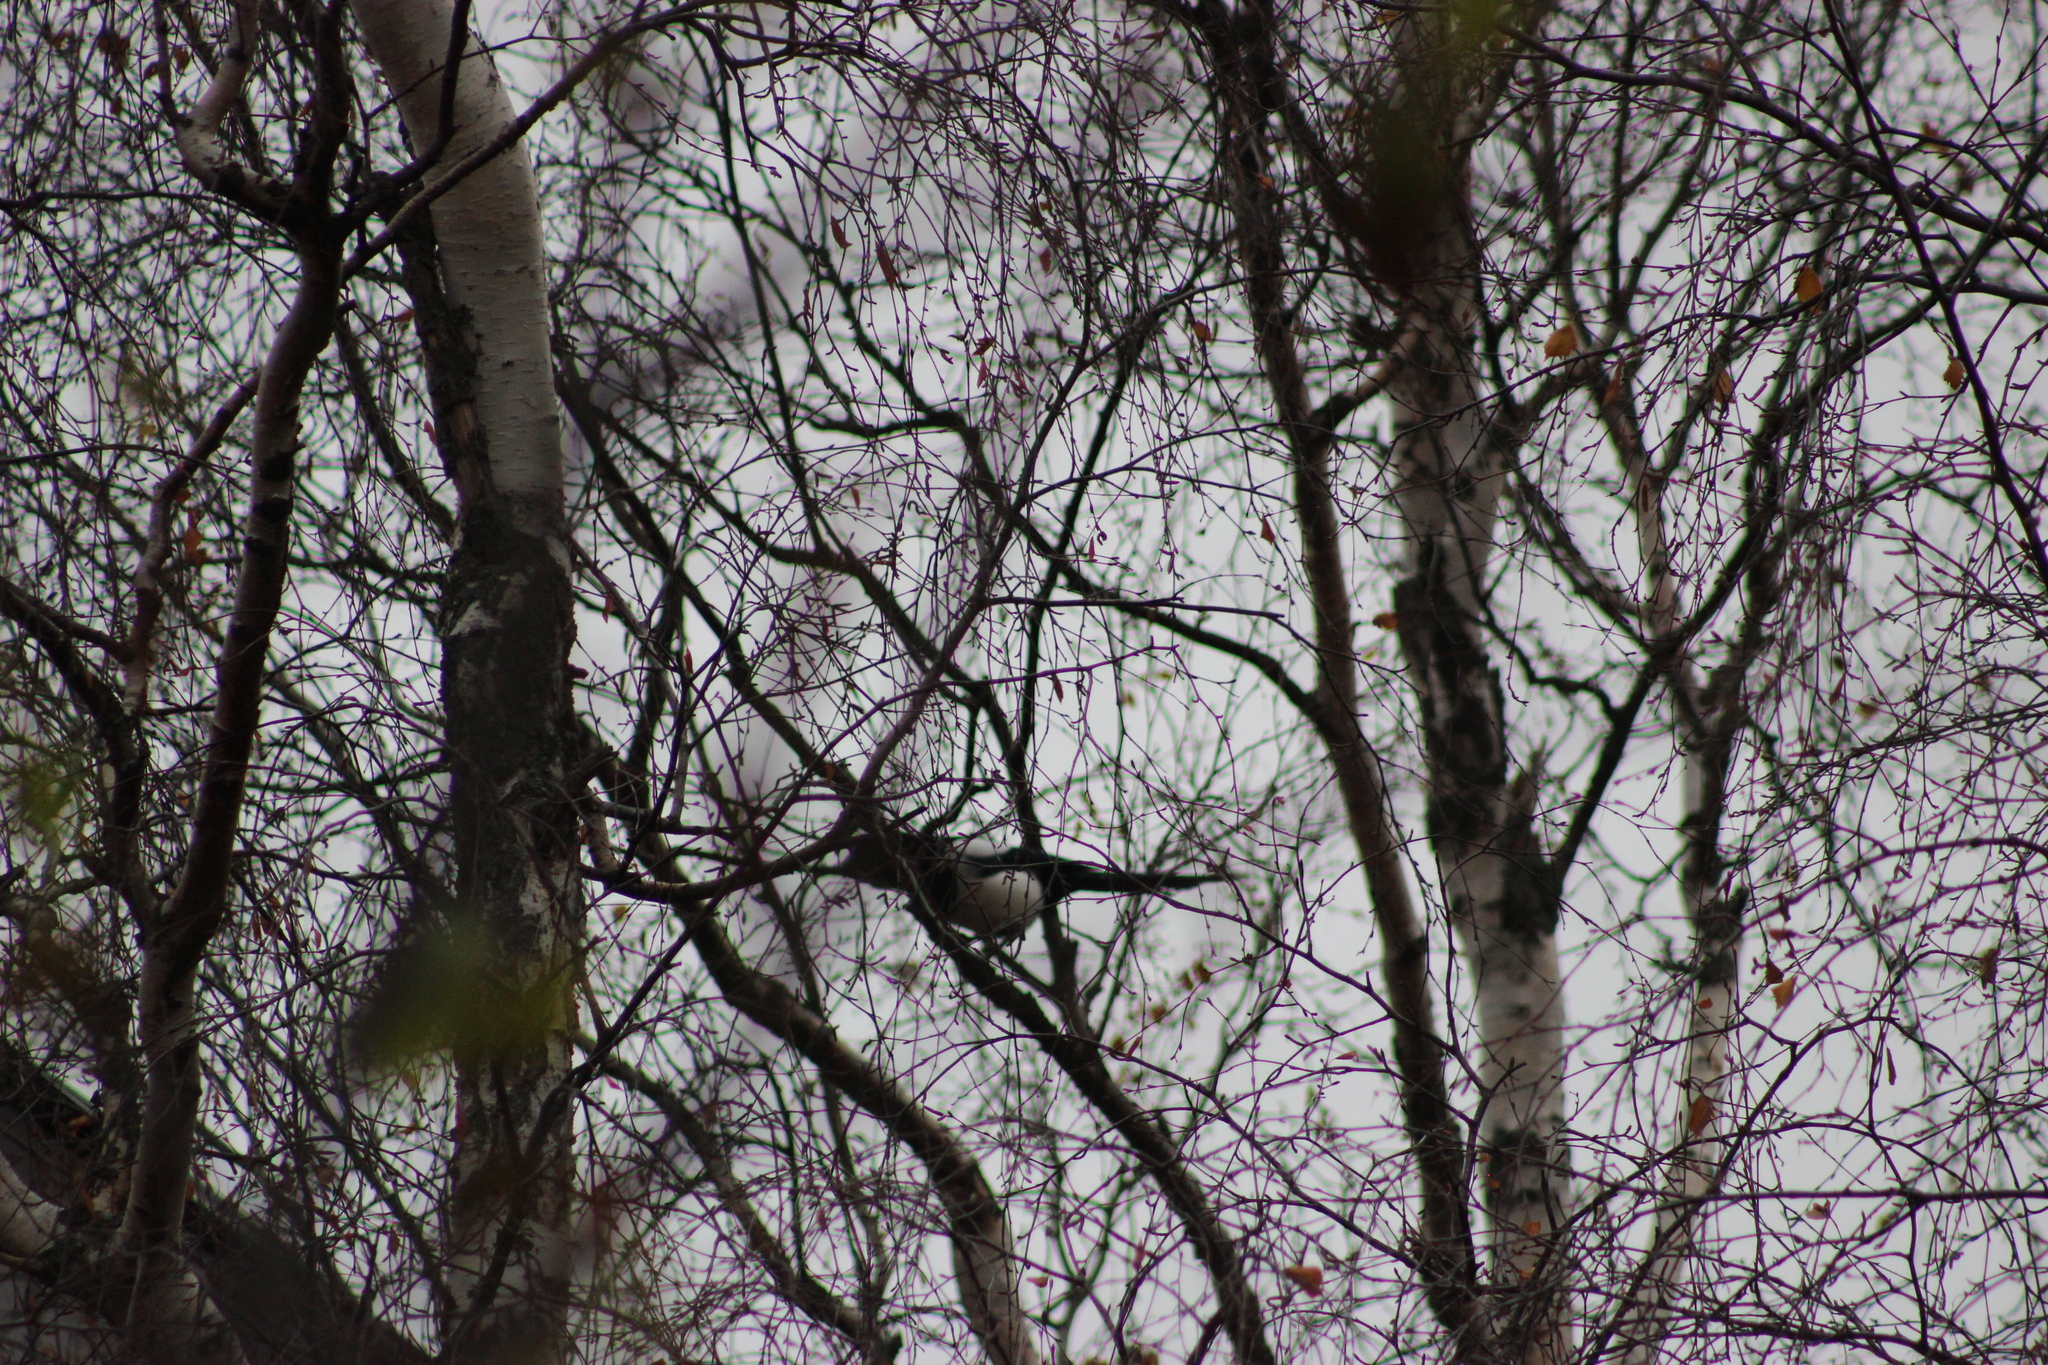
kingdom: Animalia
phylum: Chordata
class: Aves
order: Passeriformes
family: Corvidae
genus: Pica
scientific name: Pica pica
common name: Eurasian magpie
